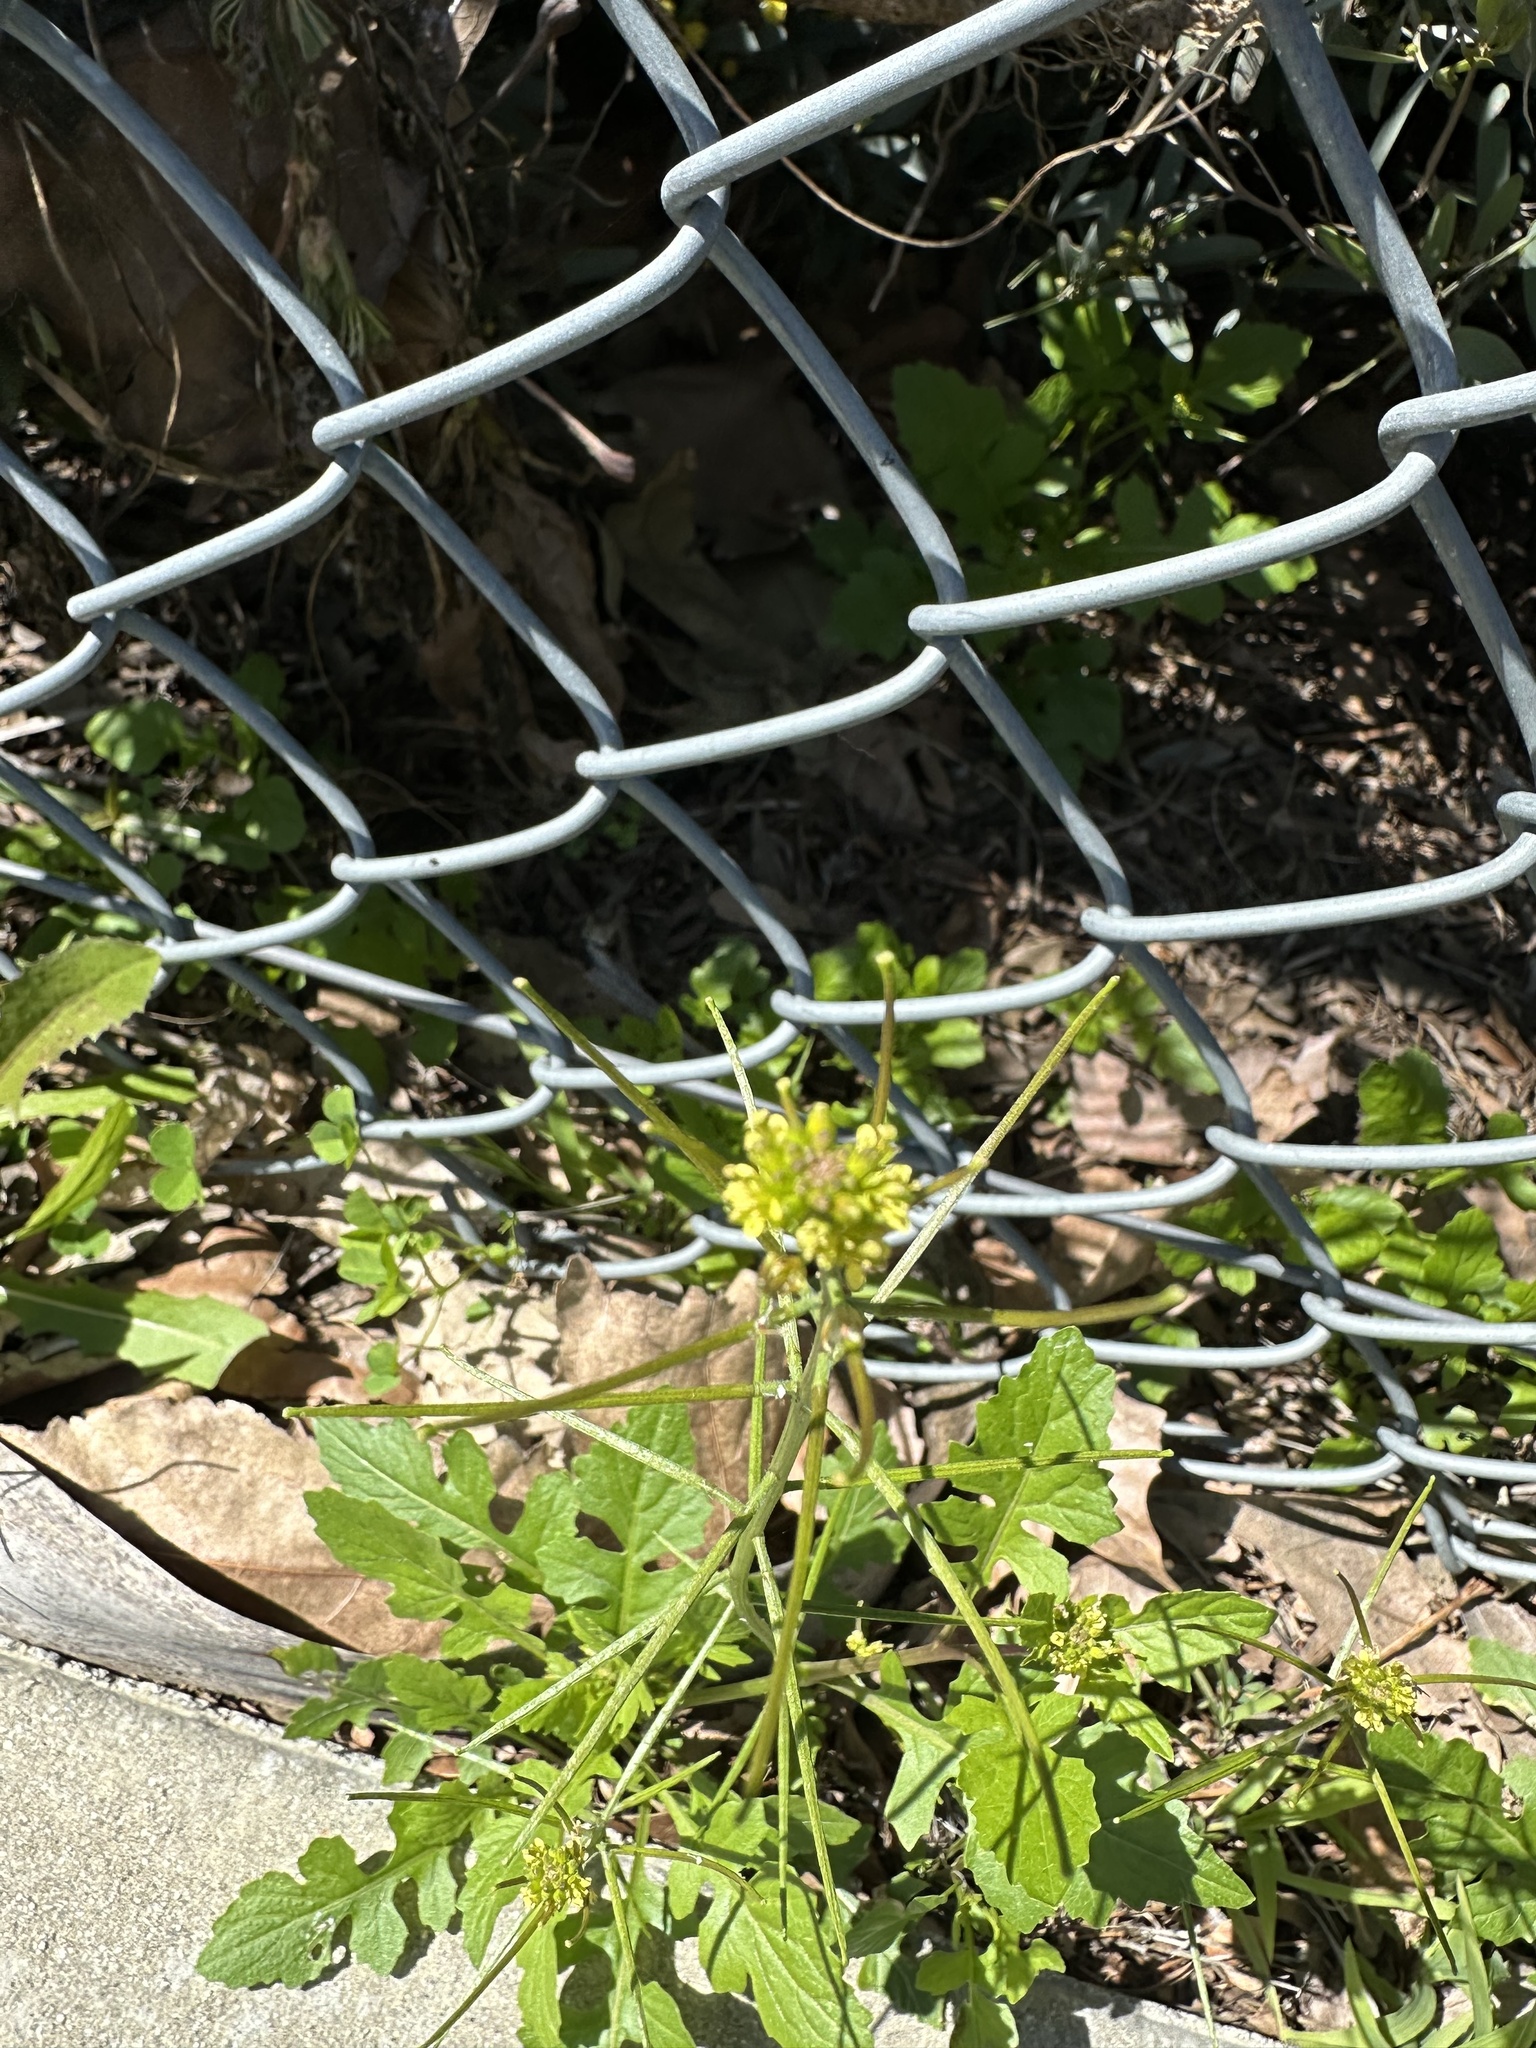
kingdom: Plantae
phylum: Tracheophyta
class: Magnoliopsida
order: Brassicales
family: Brassicaceae
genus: Sisymbrium
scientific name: Sisymbrium irio
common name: London rocket
